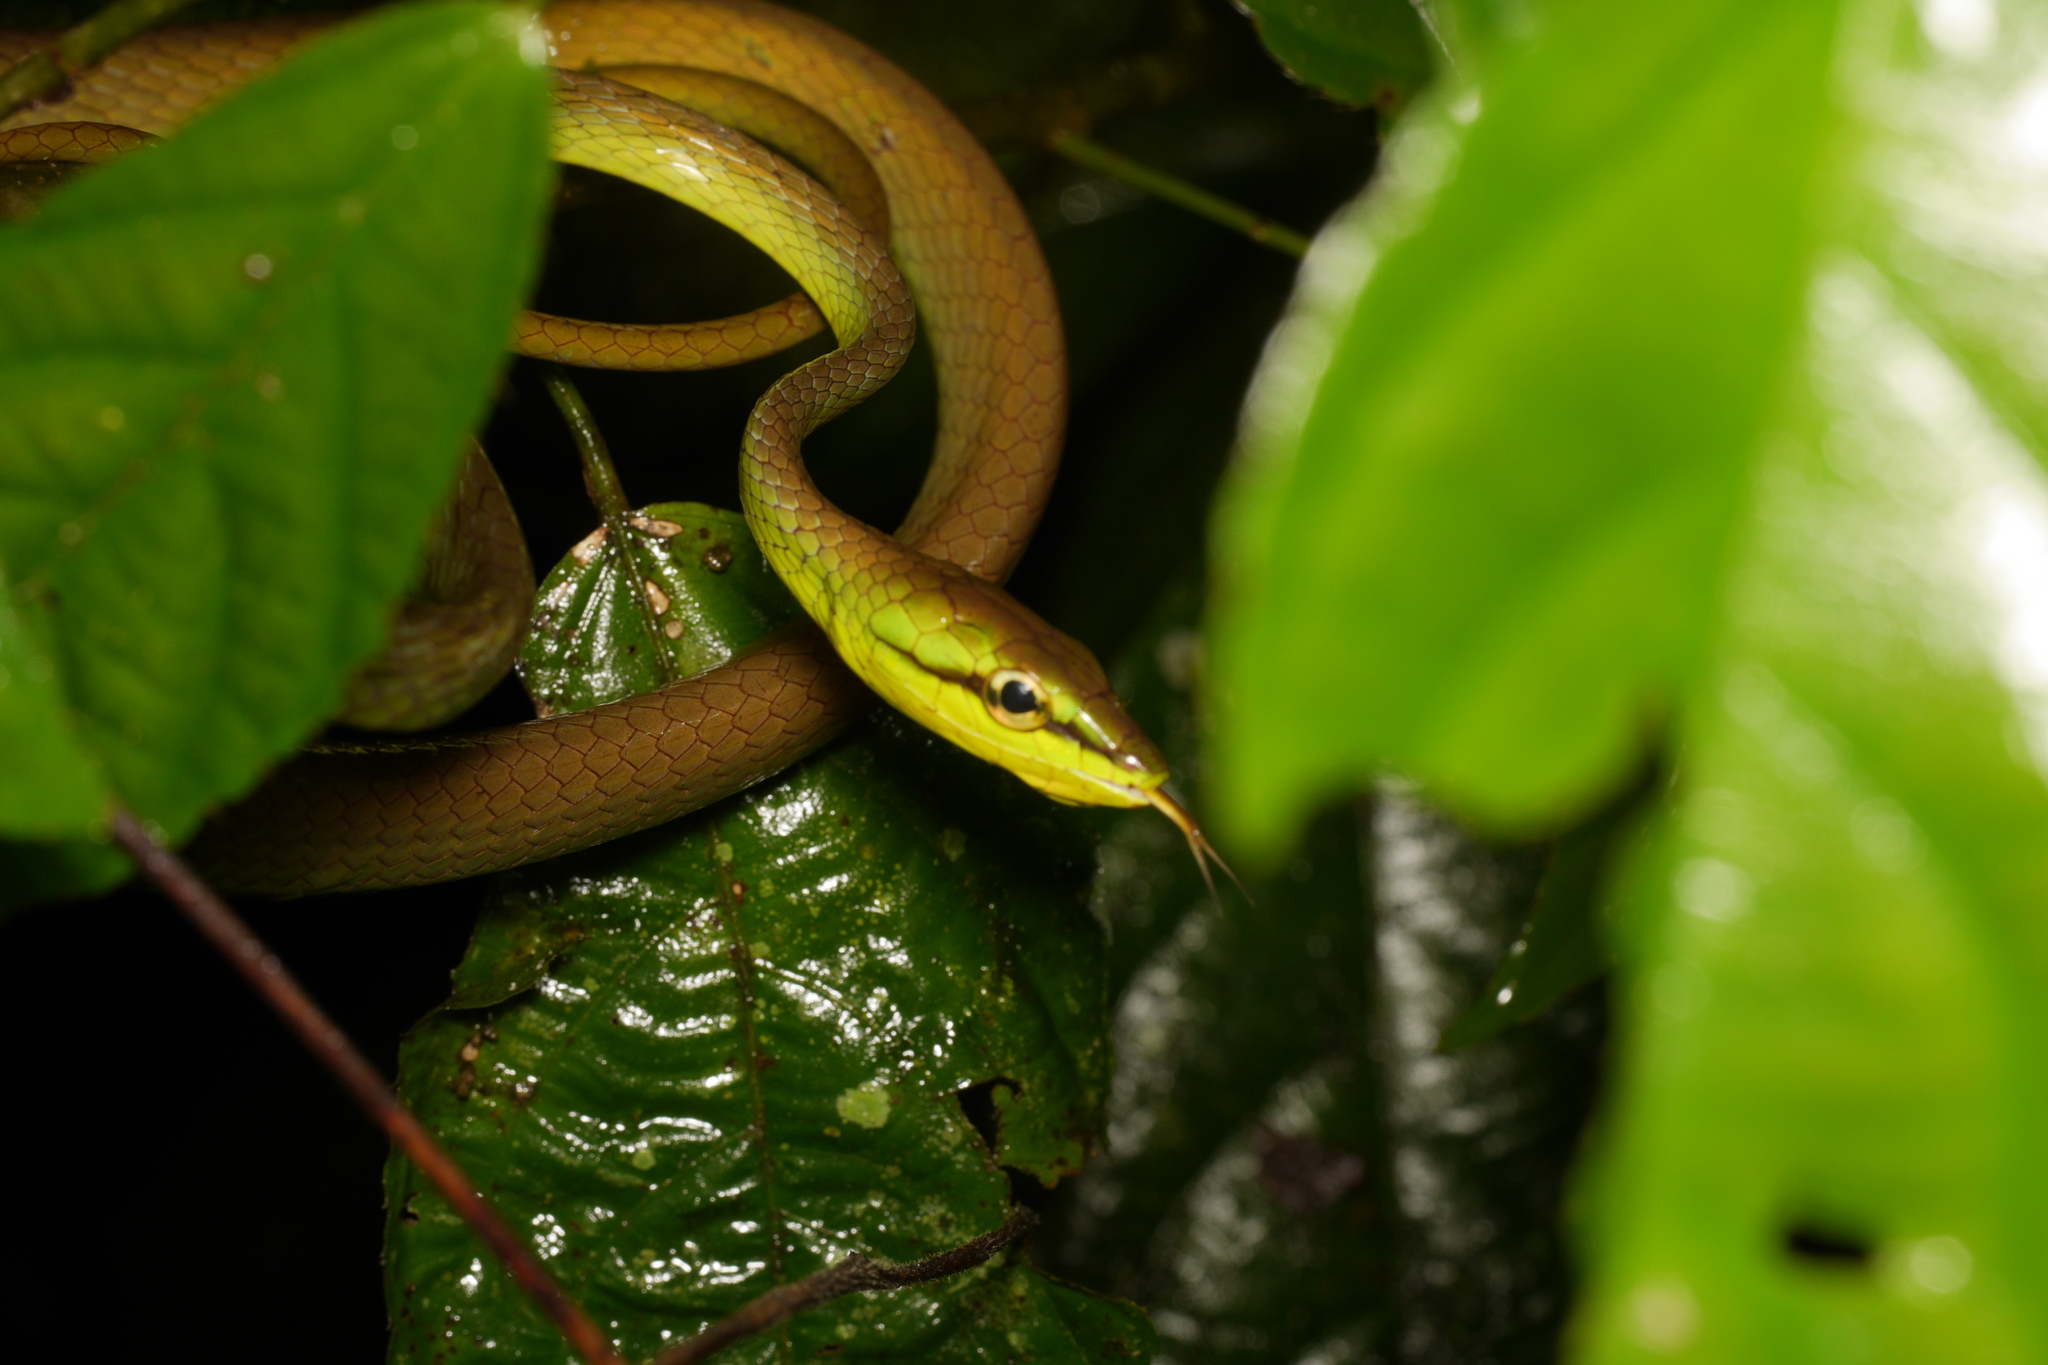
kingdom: Animalia
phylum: Chordata
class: Squamata
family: Colubridae
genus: Oxybelis
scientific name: Oxybelis brevirostris
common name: Cope's vine snake
